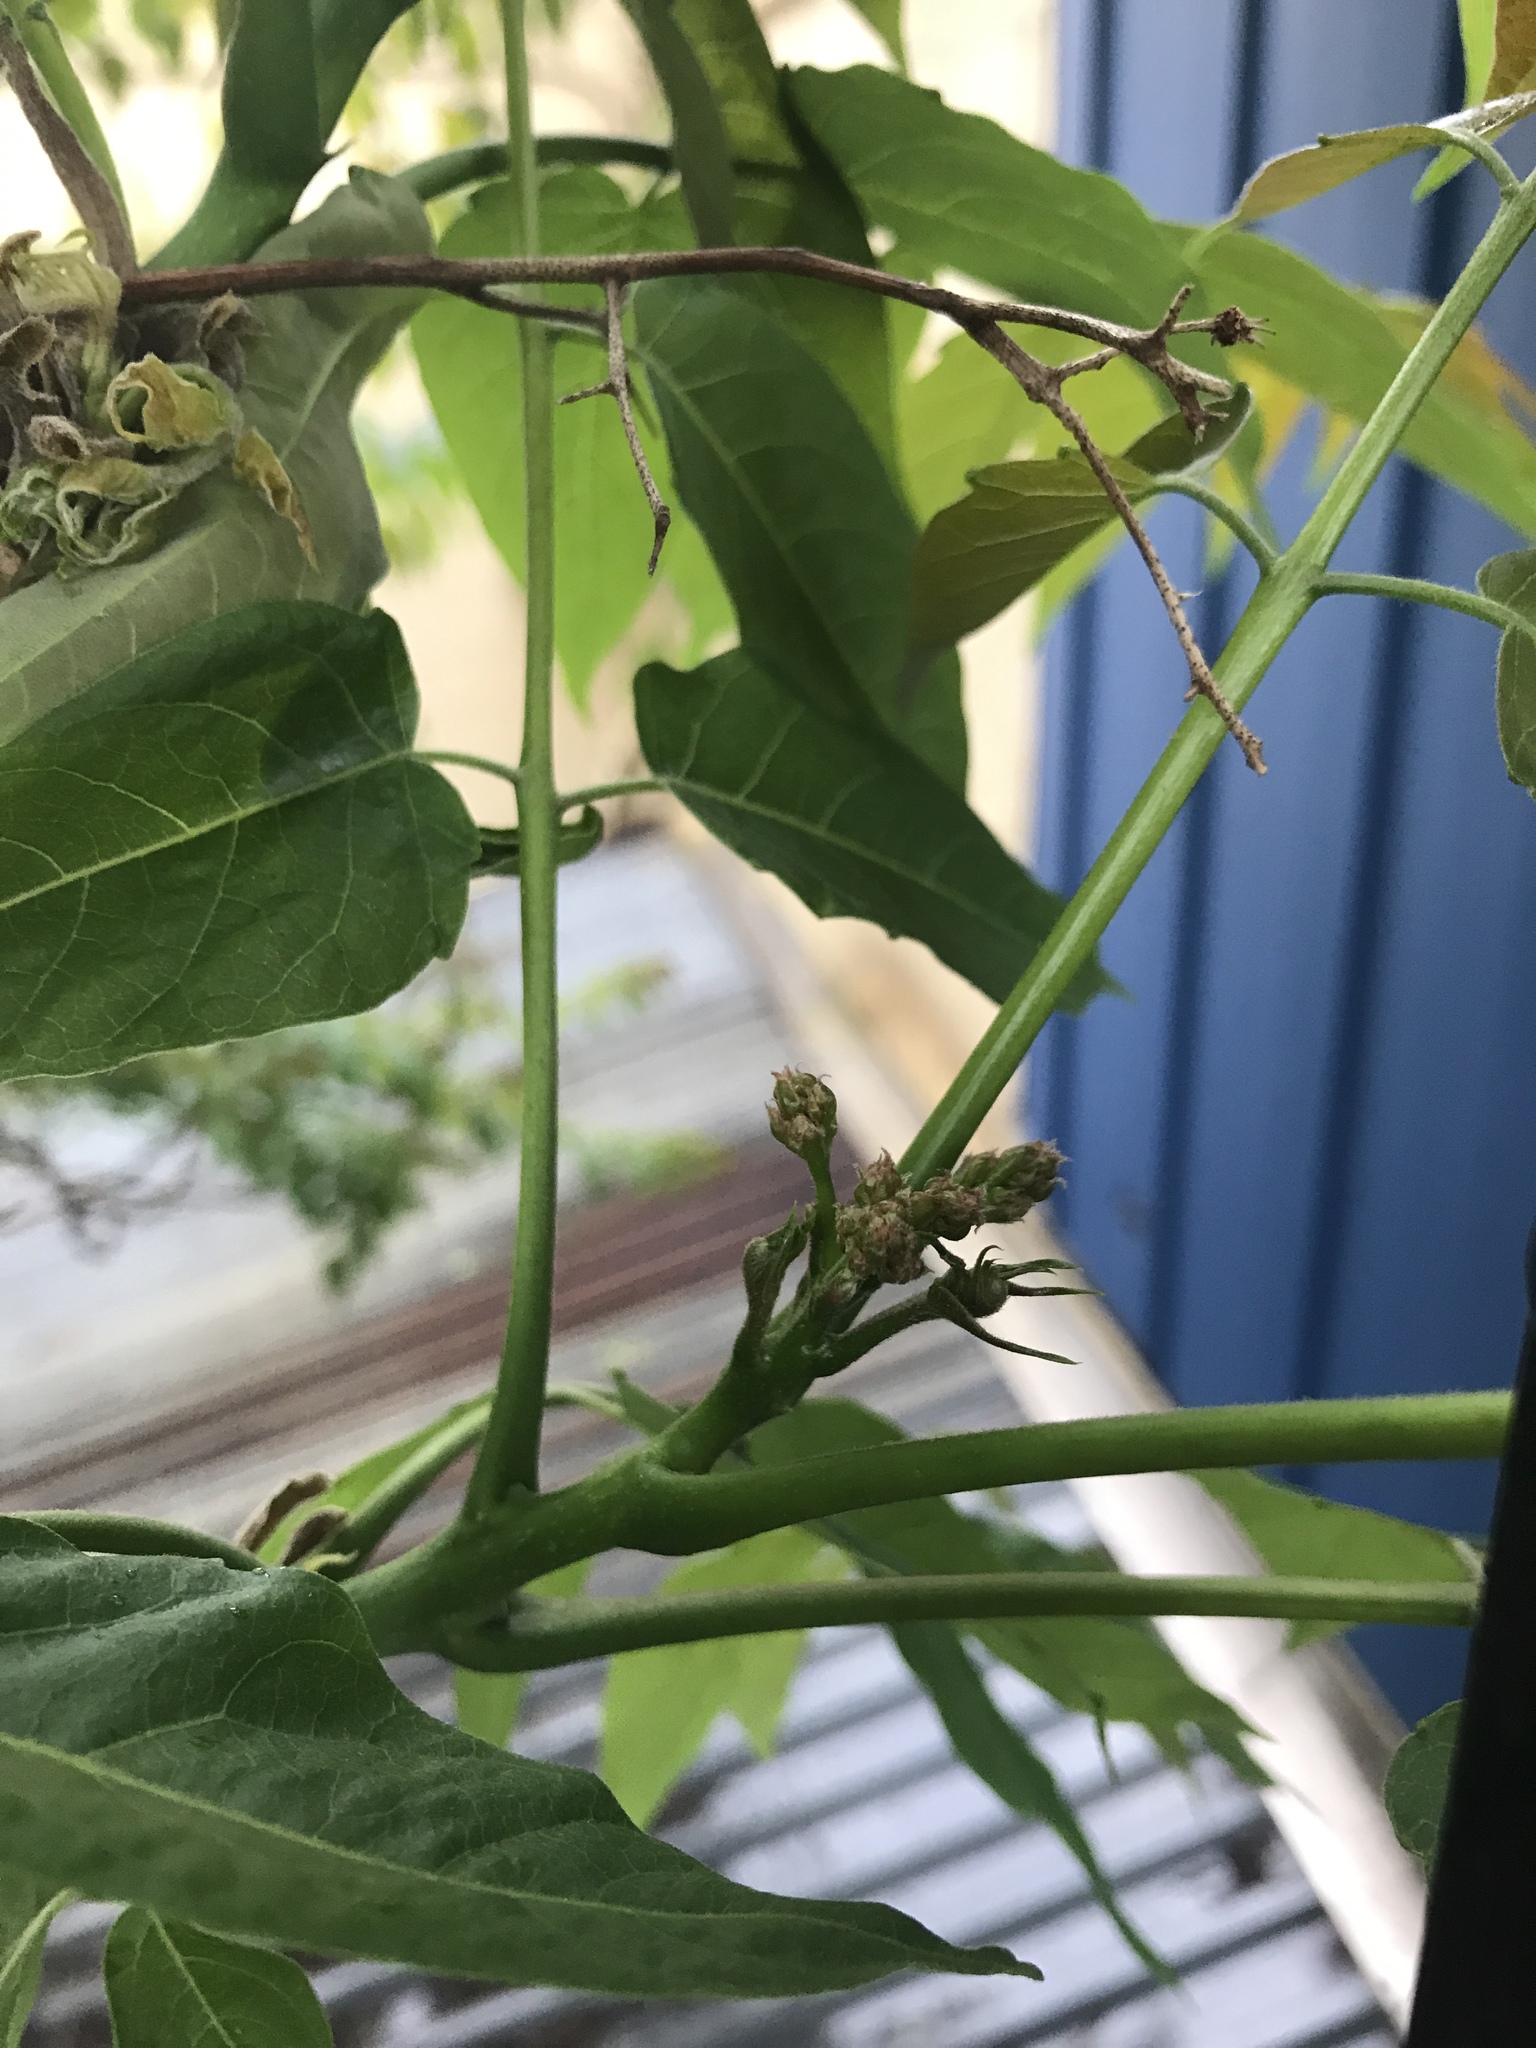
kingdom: Plantae
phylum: Tracheophyta
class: Magnoliopsida
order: Sapindales
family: Simaroubaceae
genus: Ailanthus
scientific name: Ailanthus altissima
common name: Tree-of-heaven
